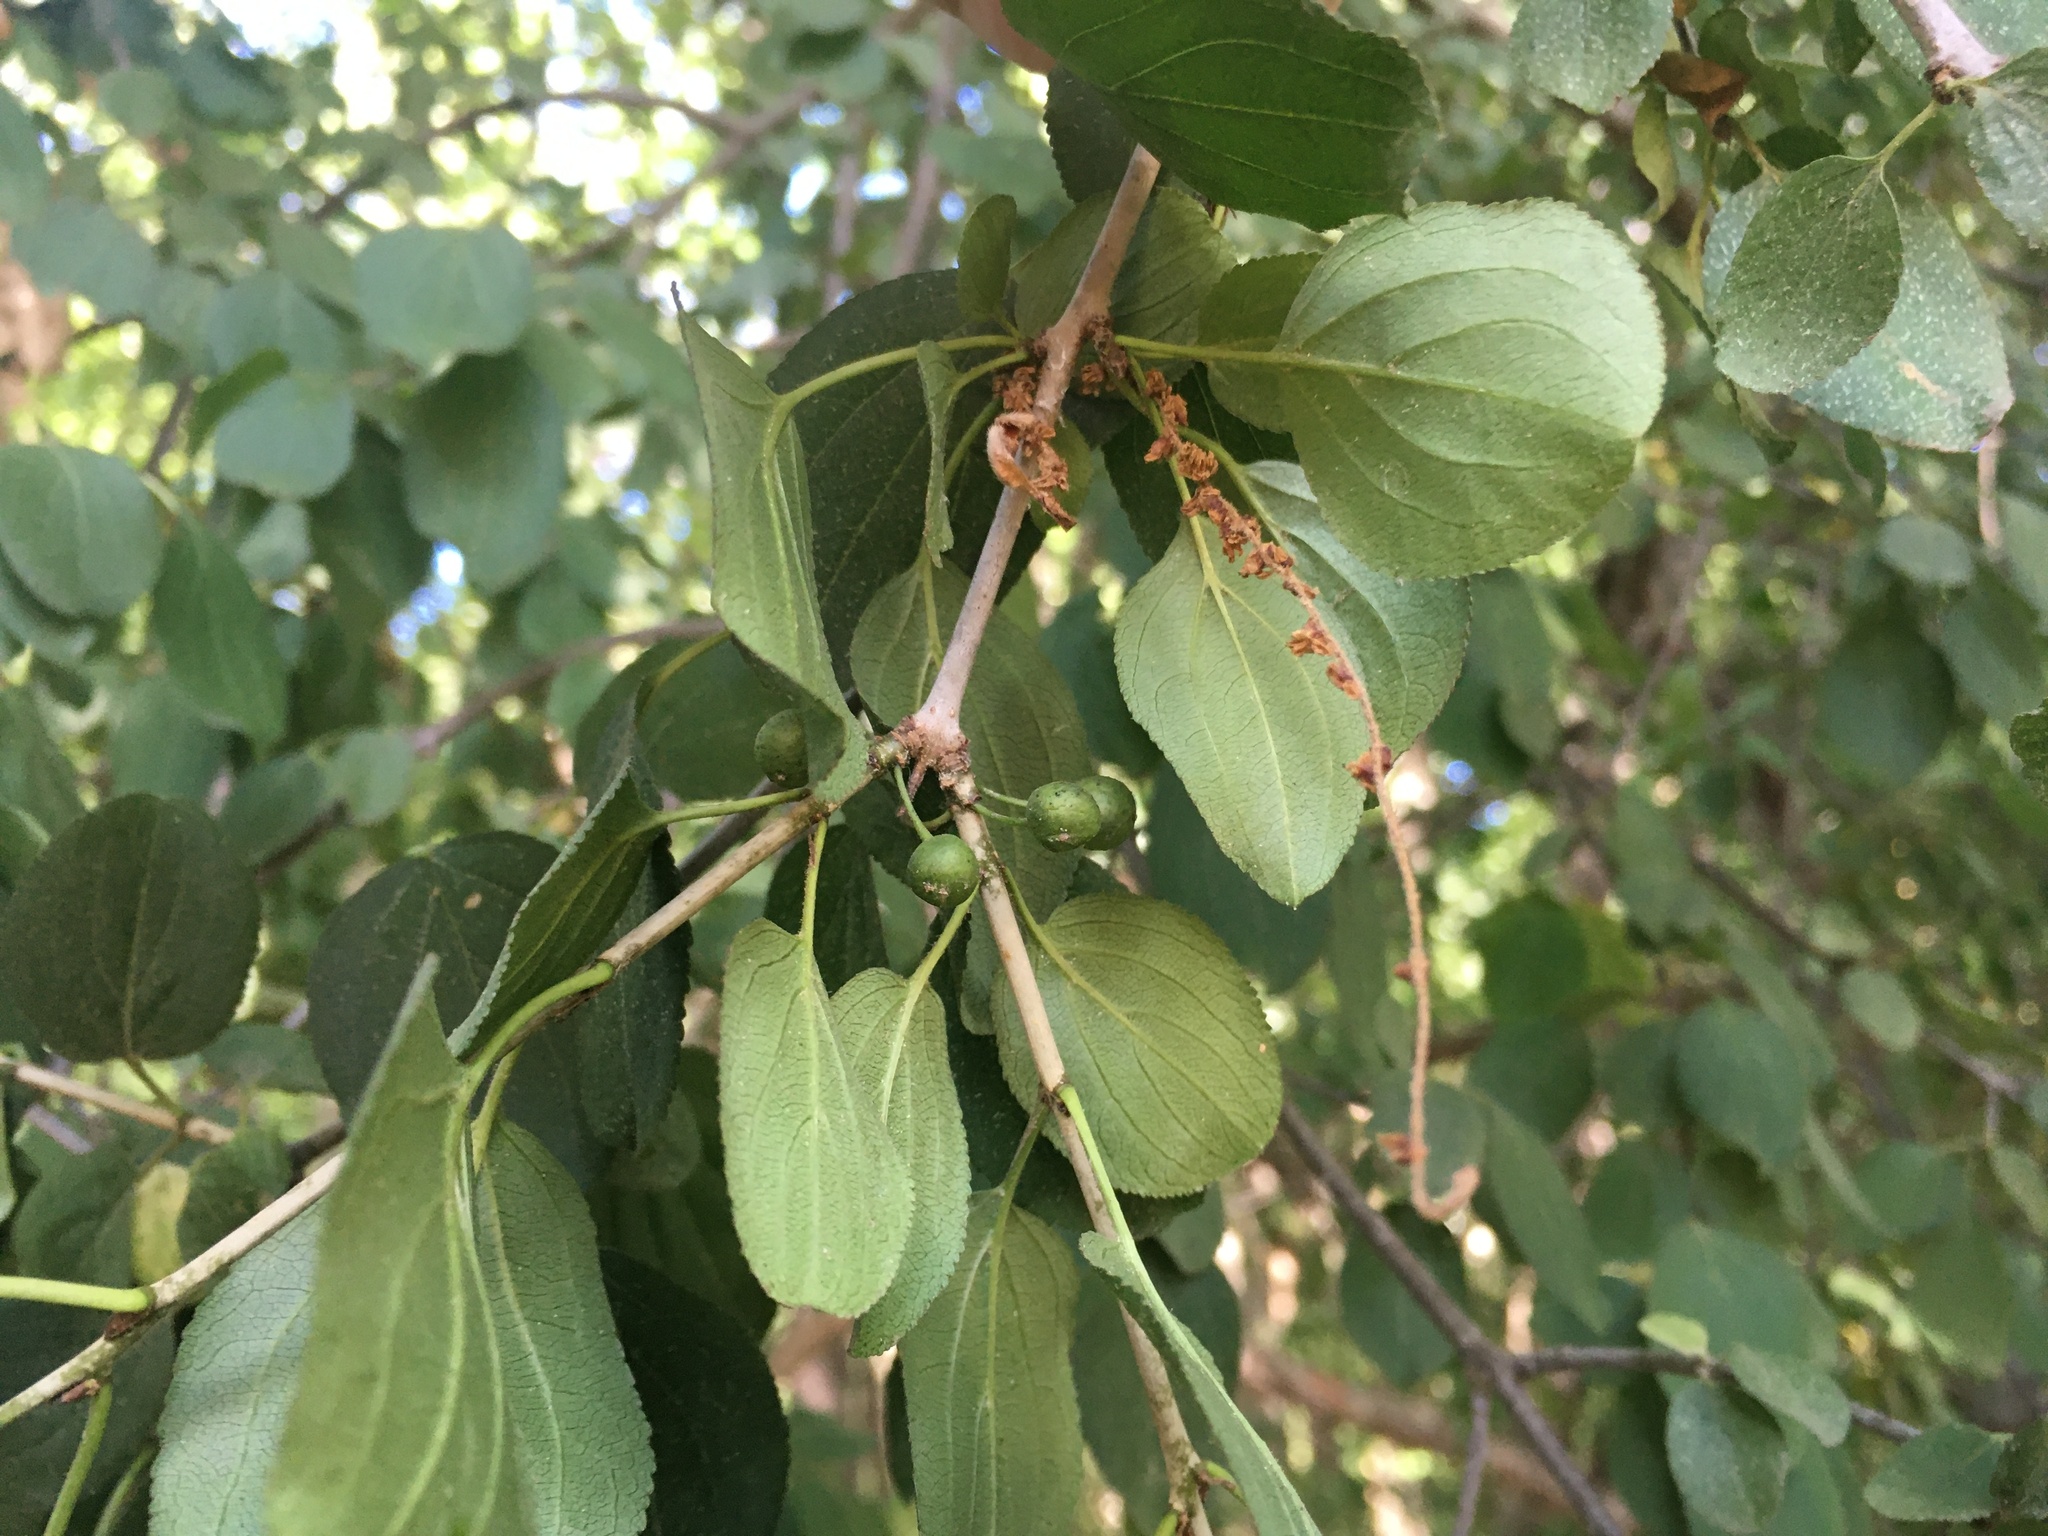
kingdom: Plantae
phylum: Tracheophyta
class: Magnoliopsida
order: Rosales
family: Rhamnaceae
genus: Rhamnus
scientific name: Rhamnus cathartica
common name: Common buckthorn
